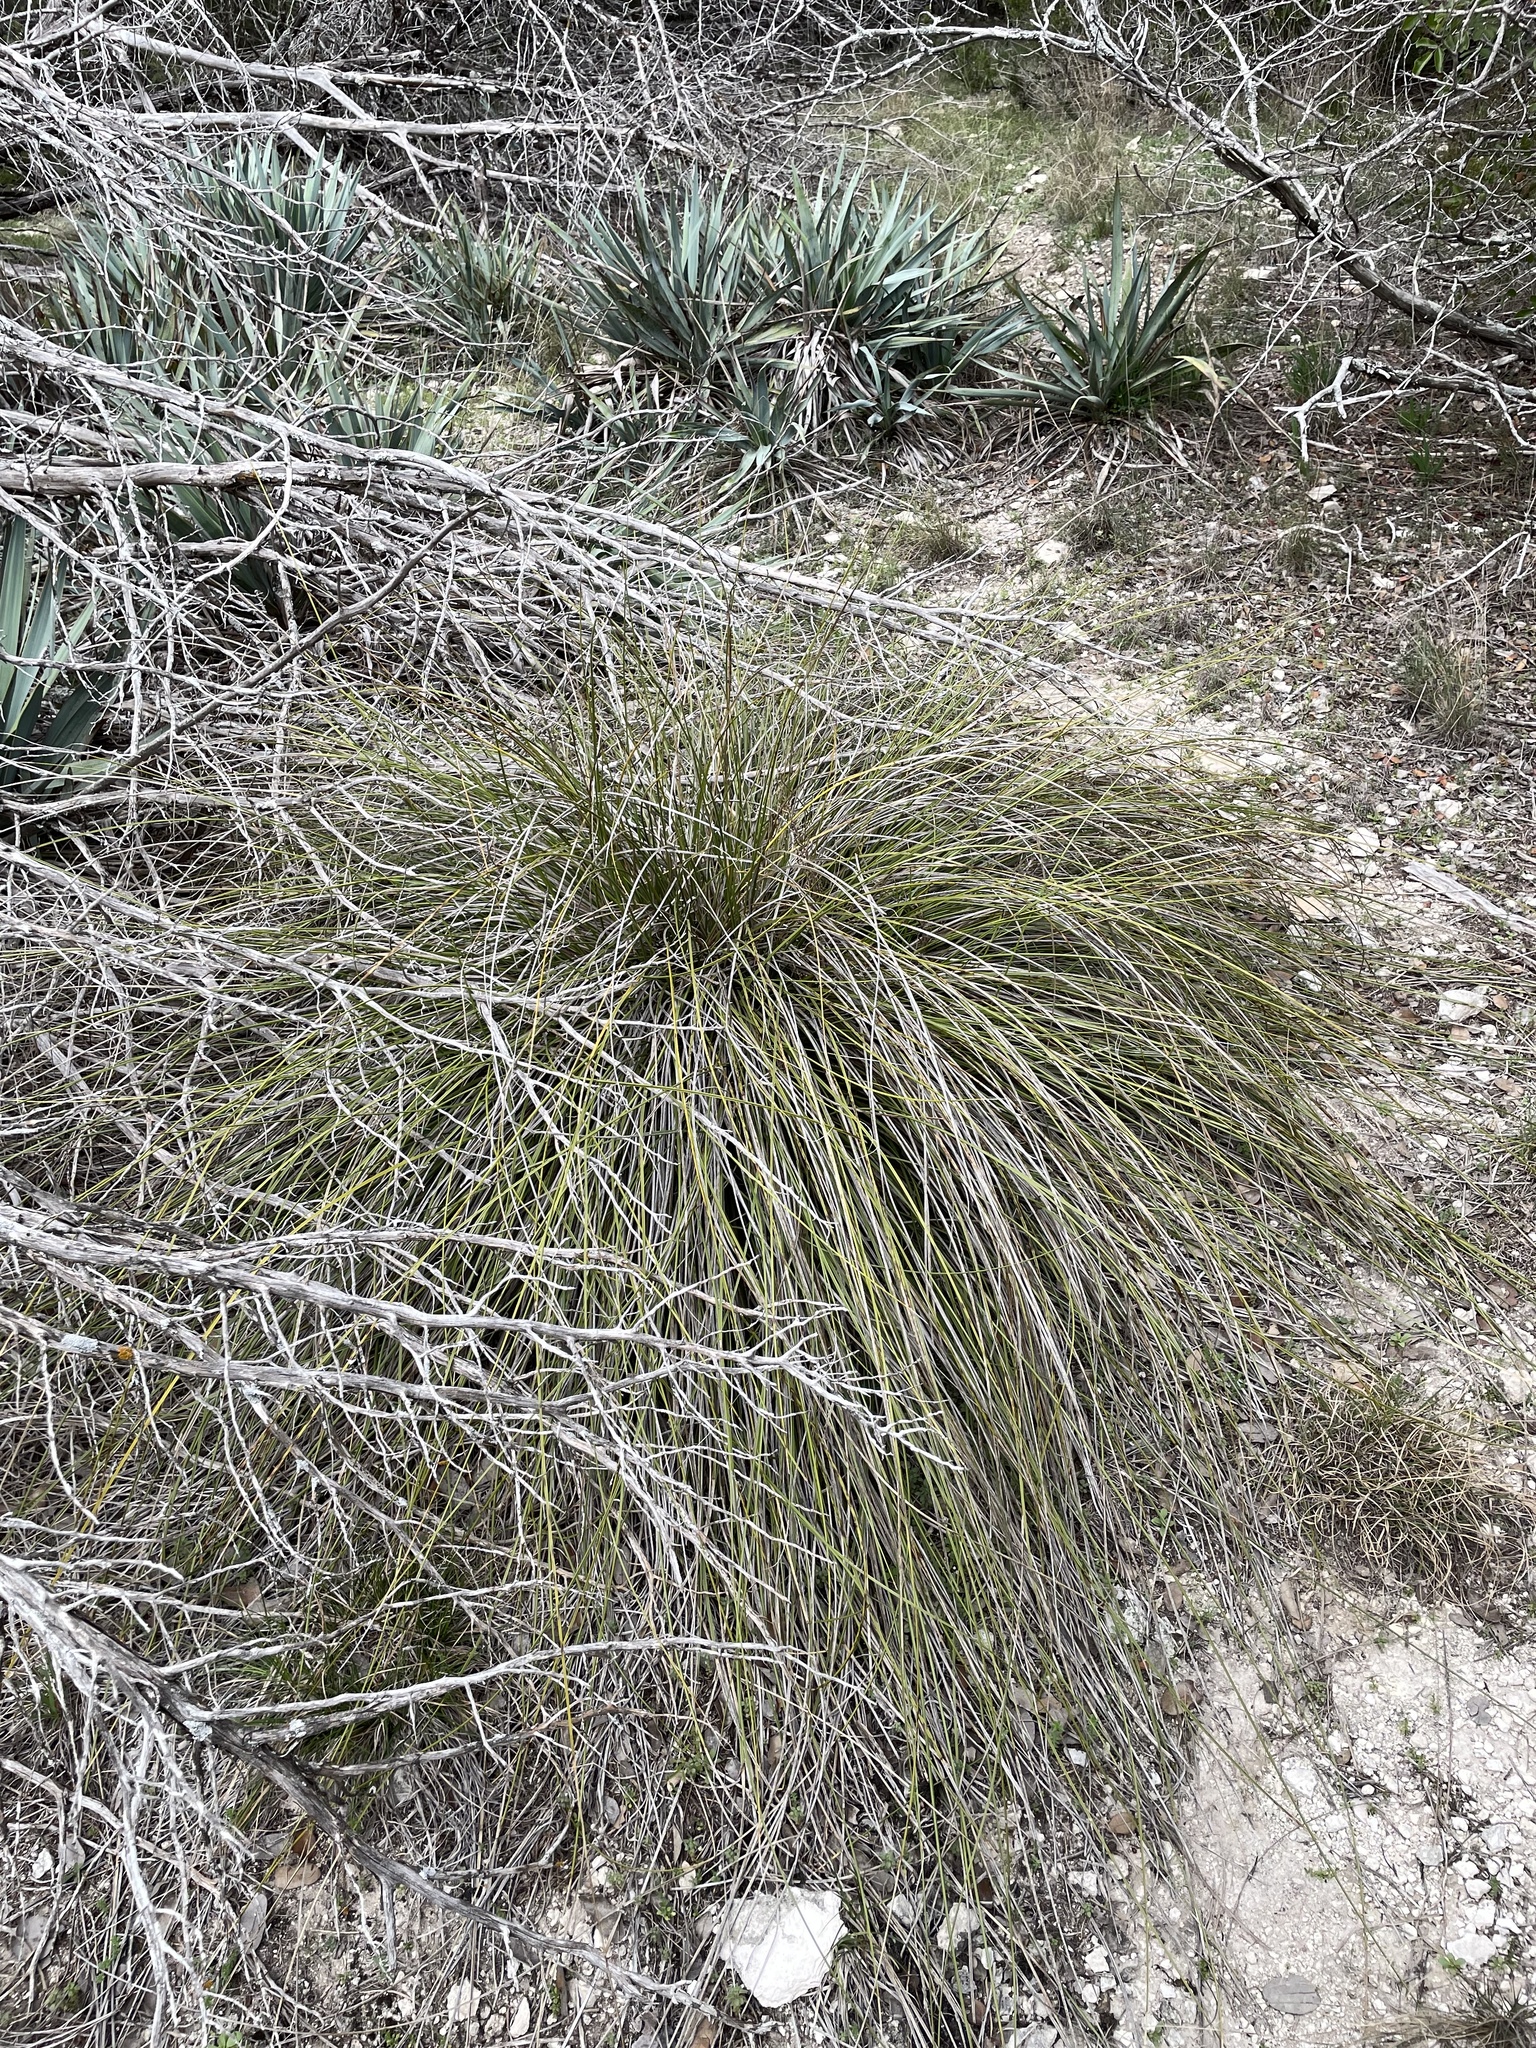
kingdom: Plantae
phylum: Tracheophyta
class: Liliopsida
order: Asparagales
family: Asparagaceae
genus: Nolina
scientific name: Nolina texana
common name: Texas sacahuiste
